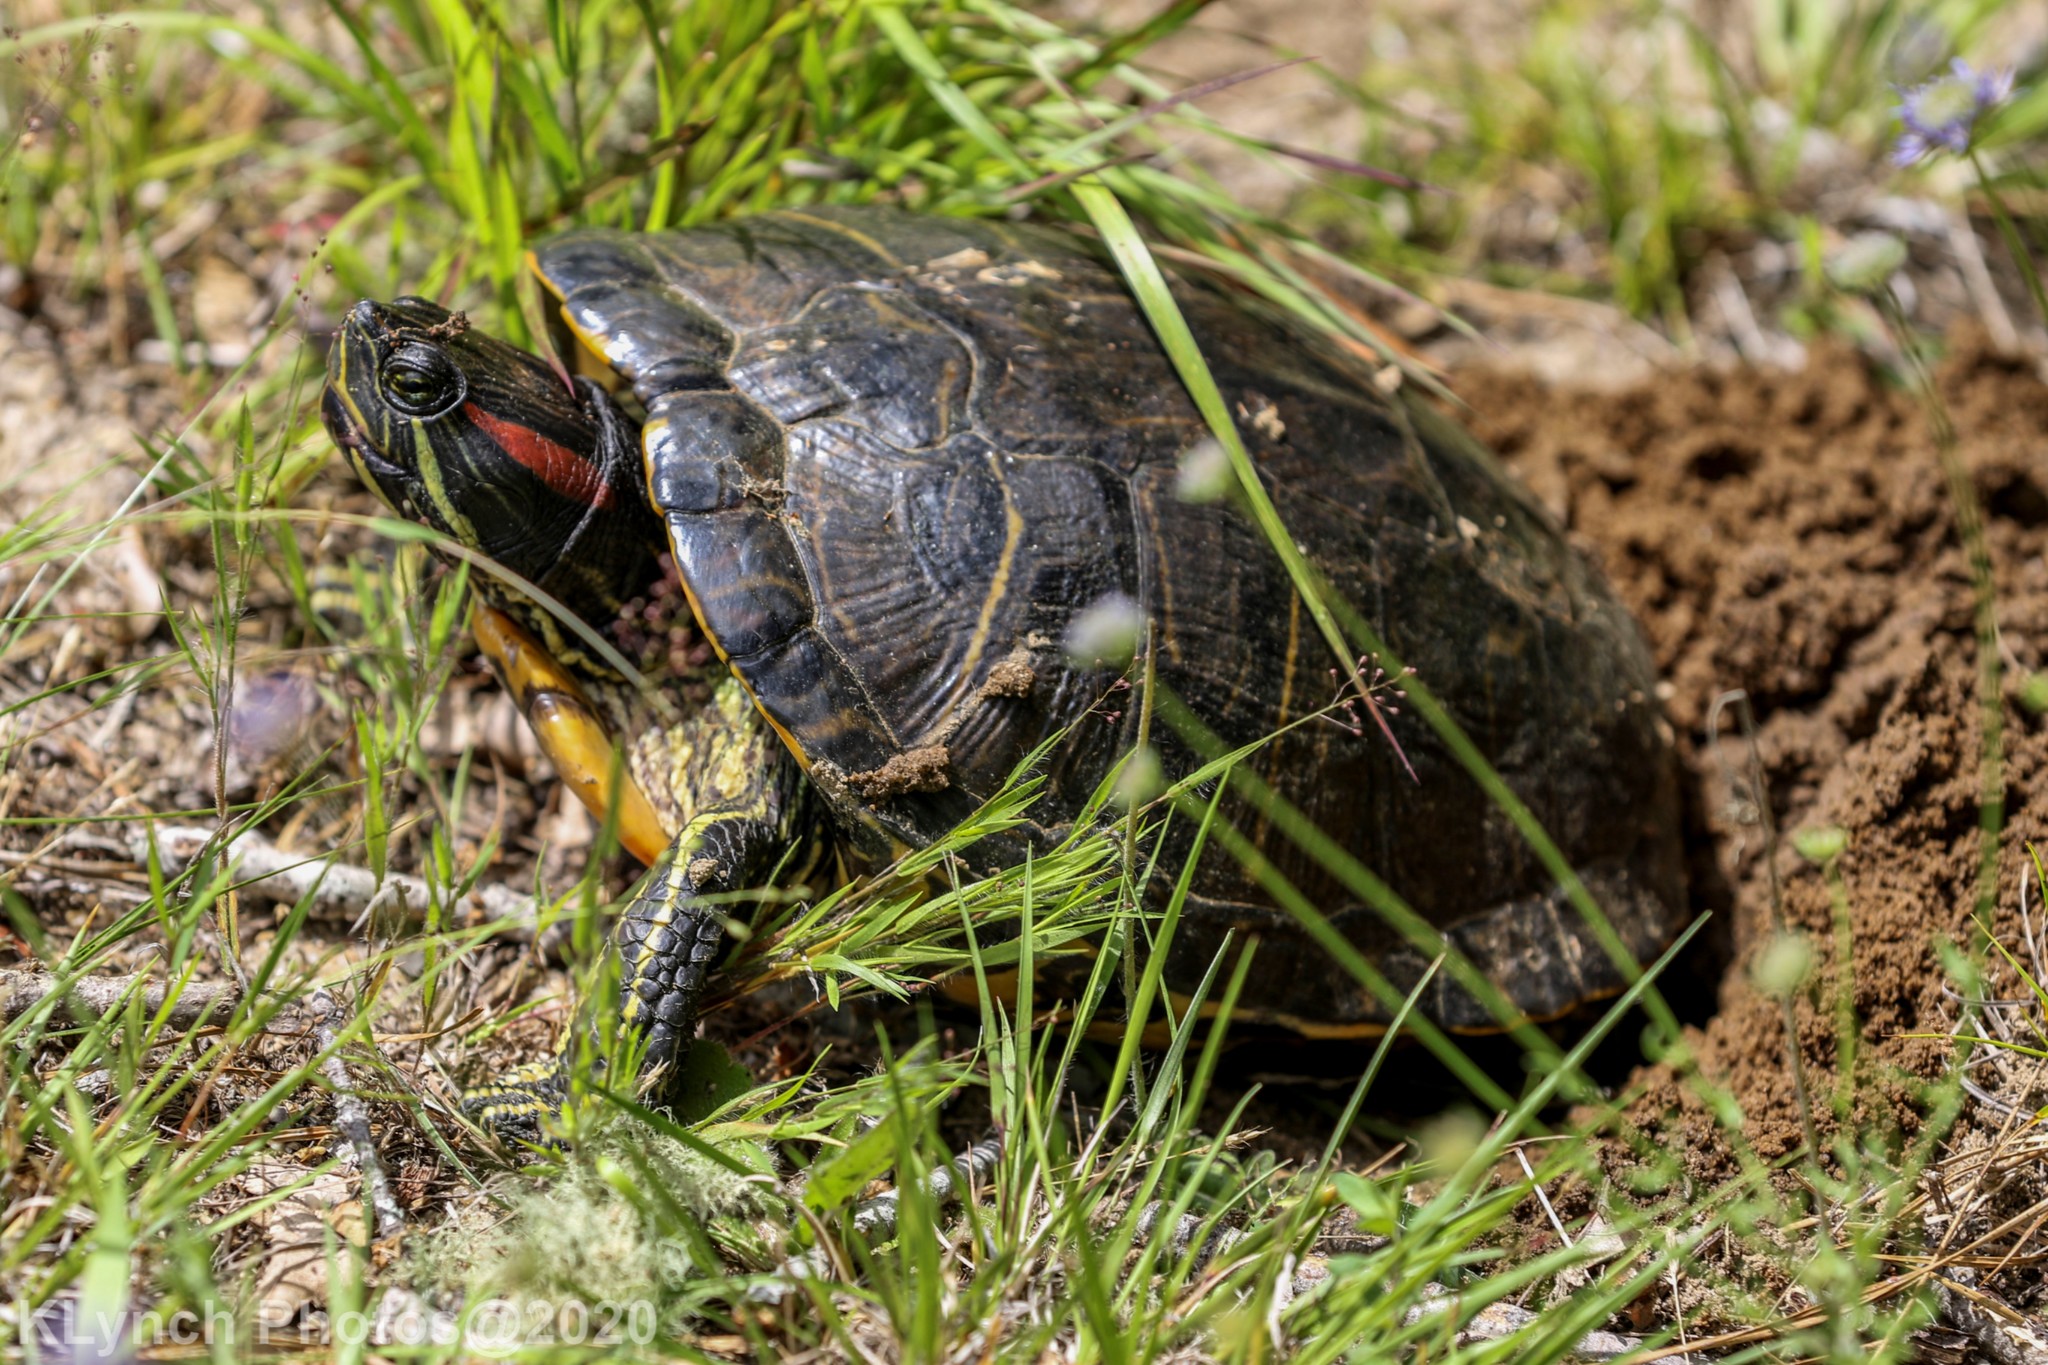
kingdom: Animalia
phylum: Chordata
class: Testudines
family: Emydidae
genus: Trachemys
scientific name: Trachemys scripta
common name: Slider
